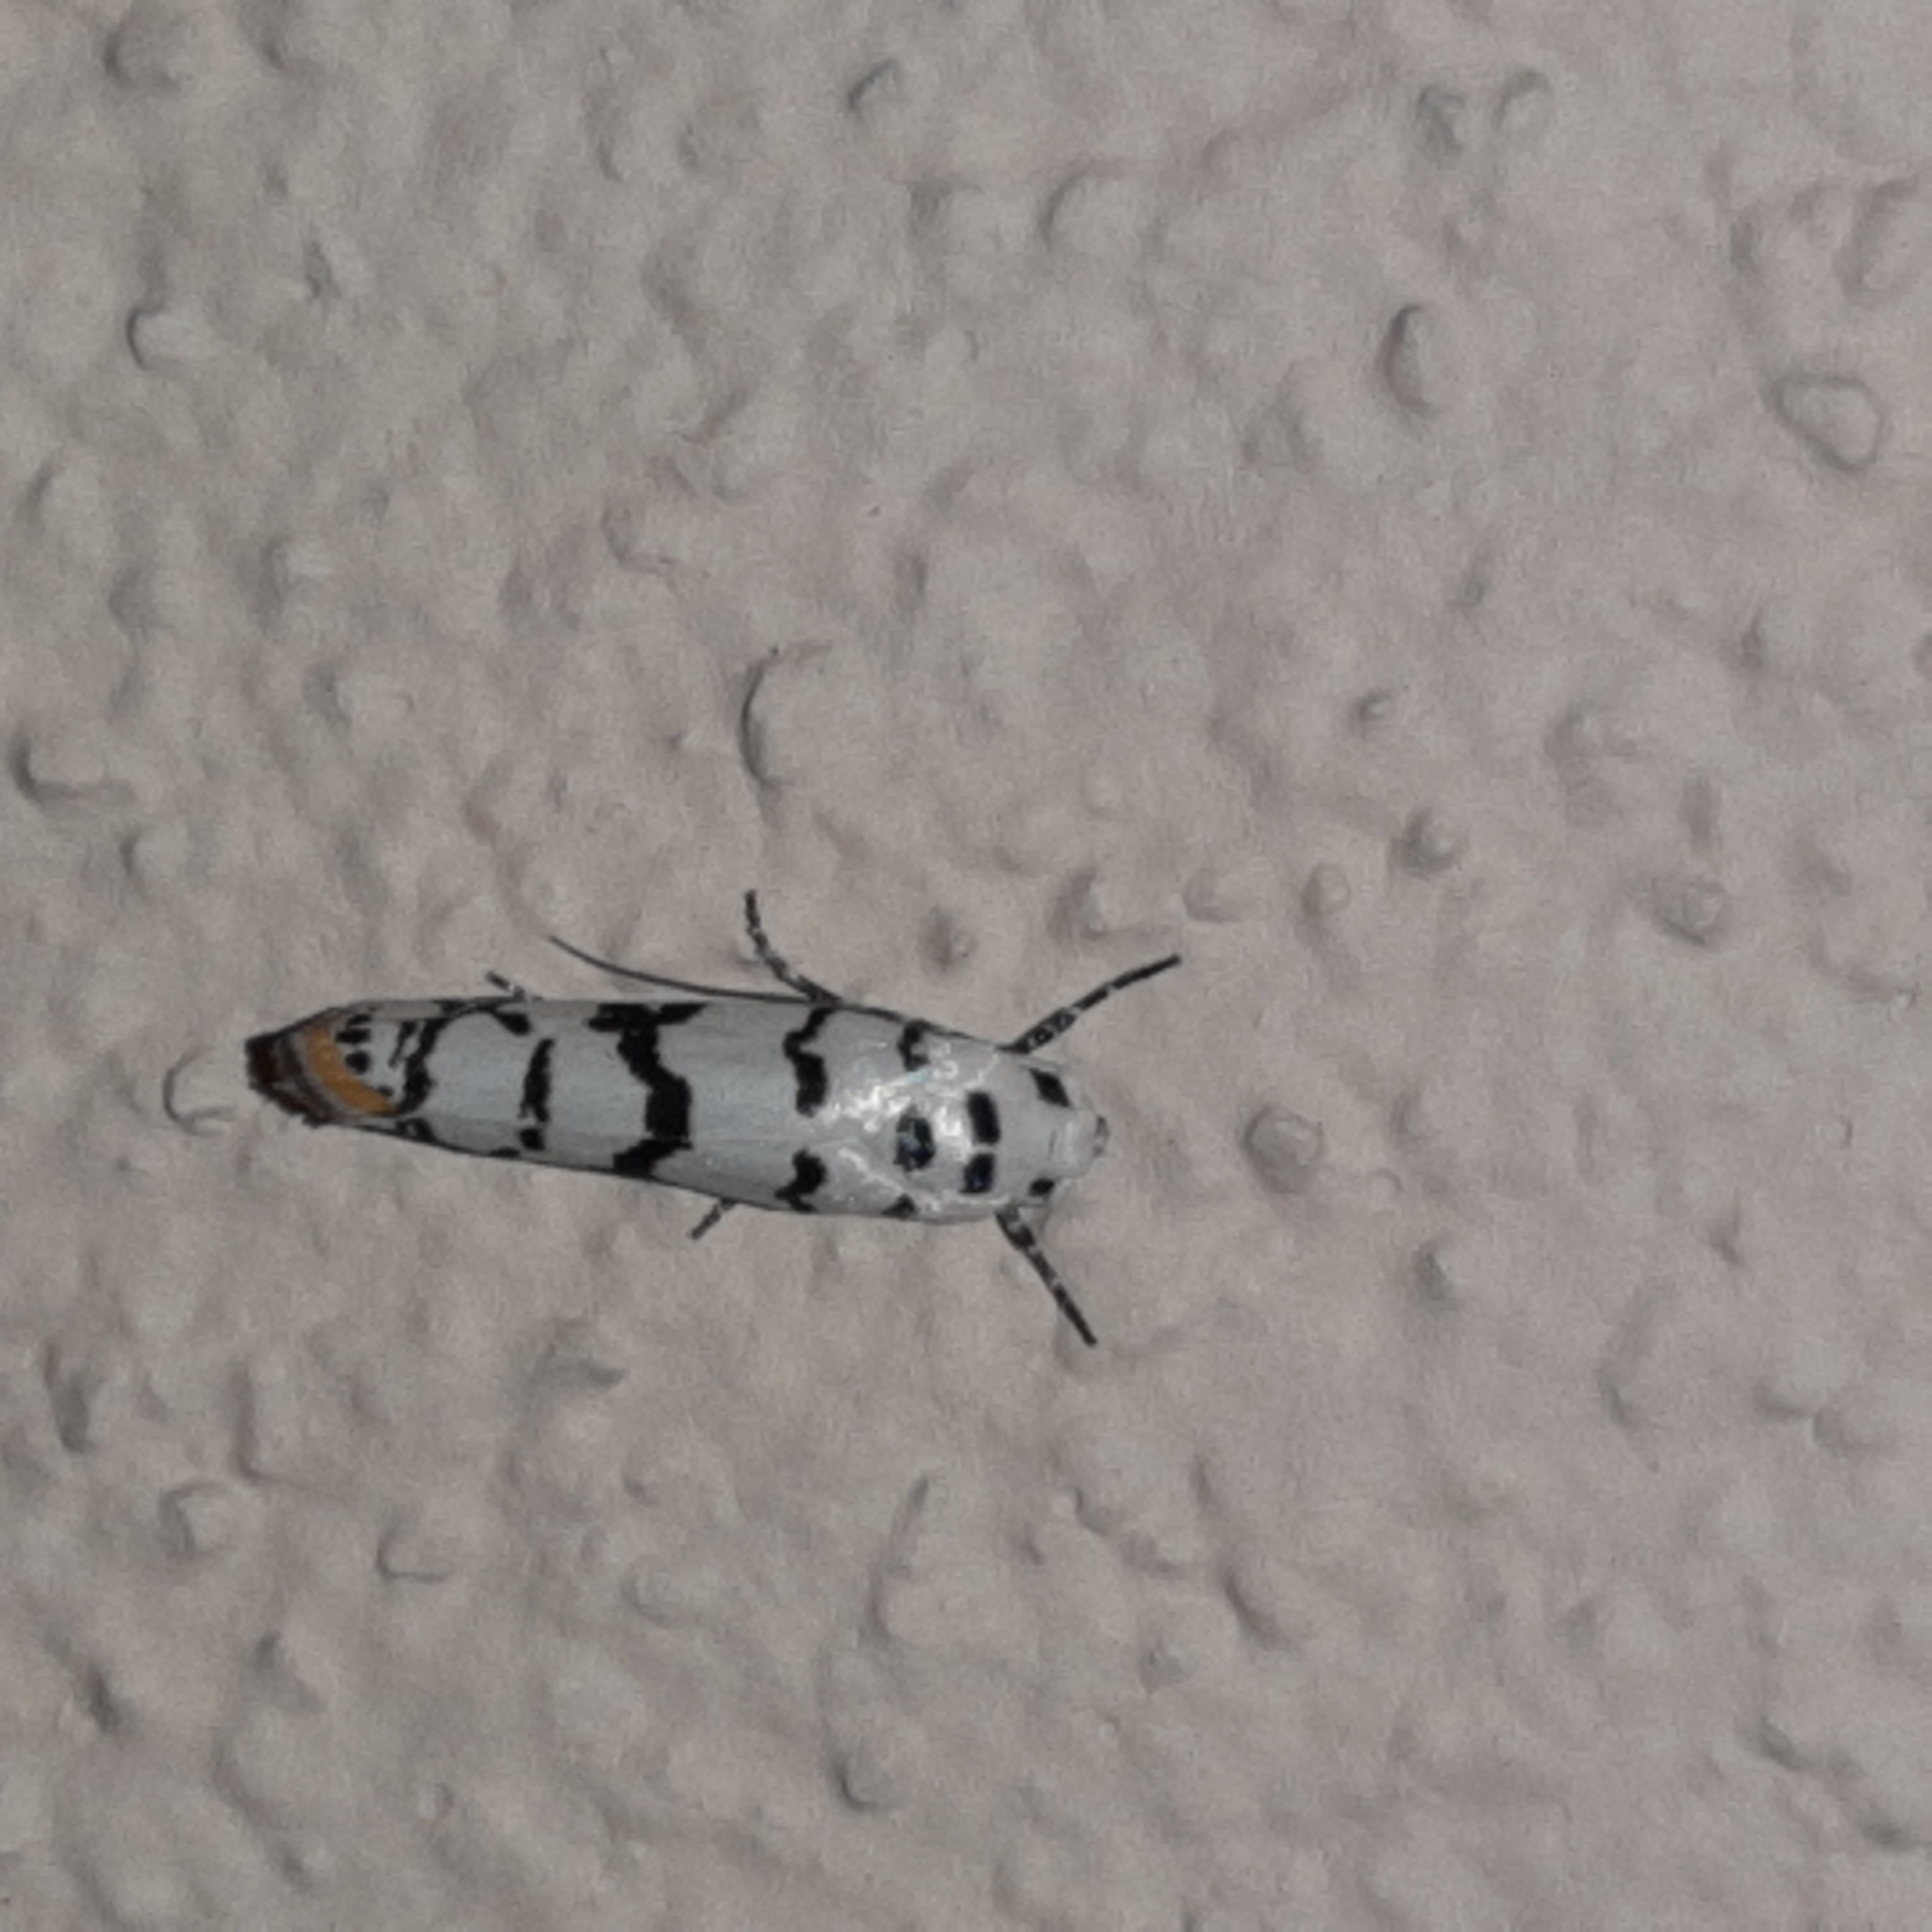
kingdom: Animalia
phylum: Arthropoda
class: Insecta
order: Lepidoptera
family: Ethmiidae
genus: Ethmia
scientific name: Ethmia delliella
